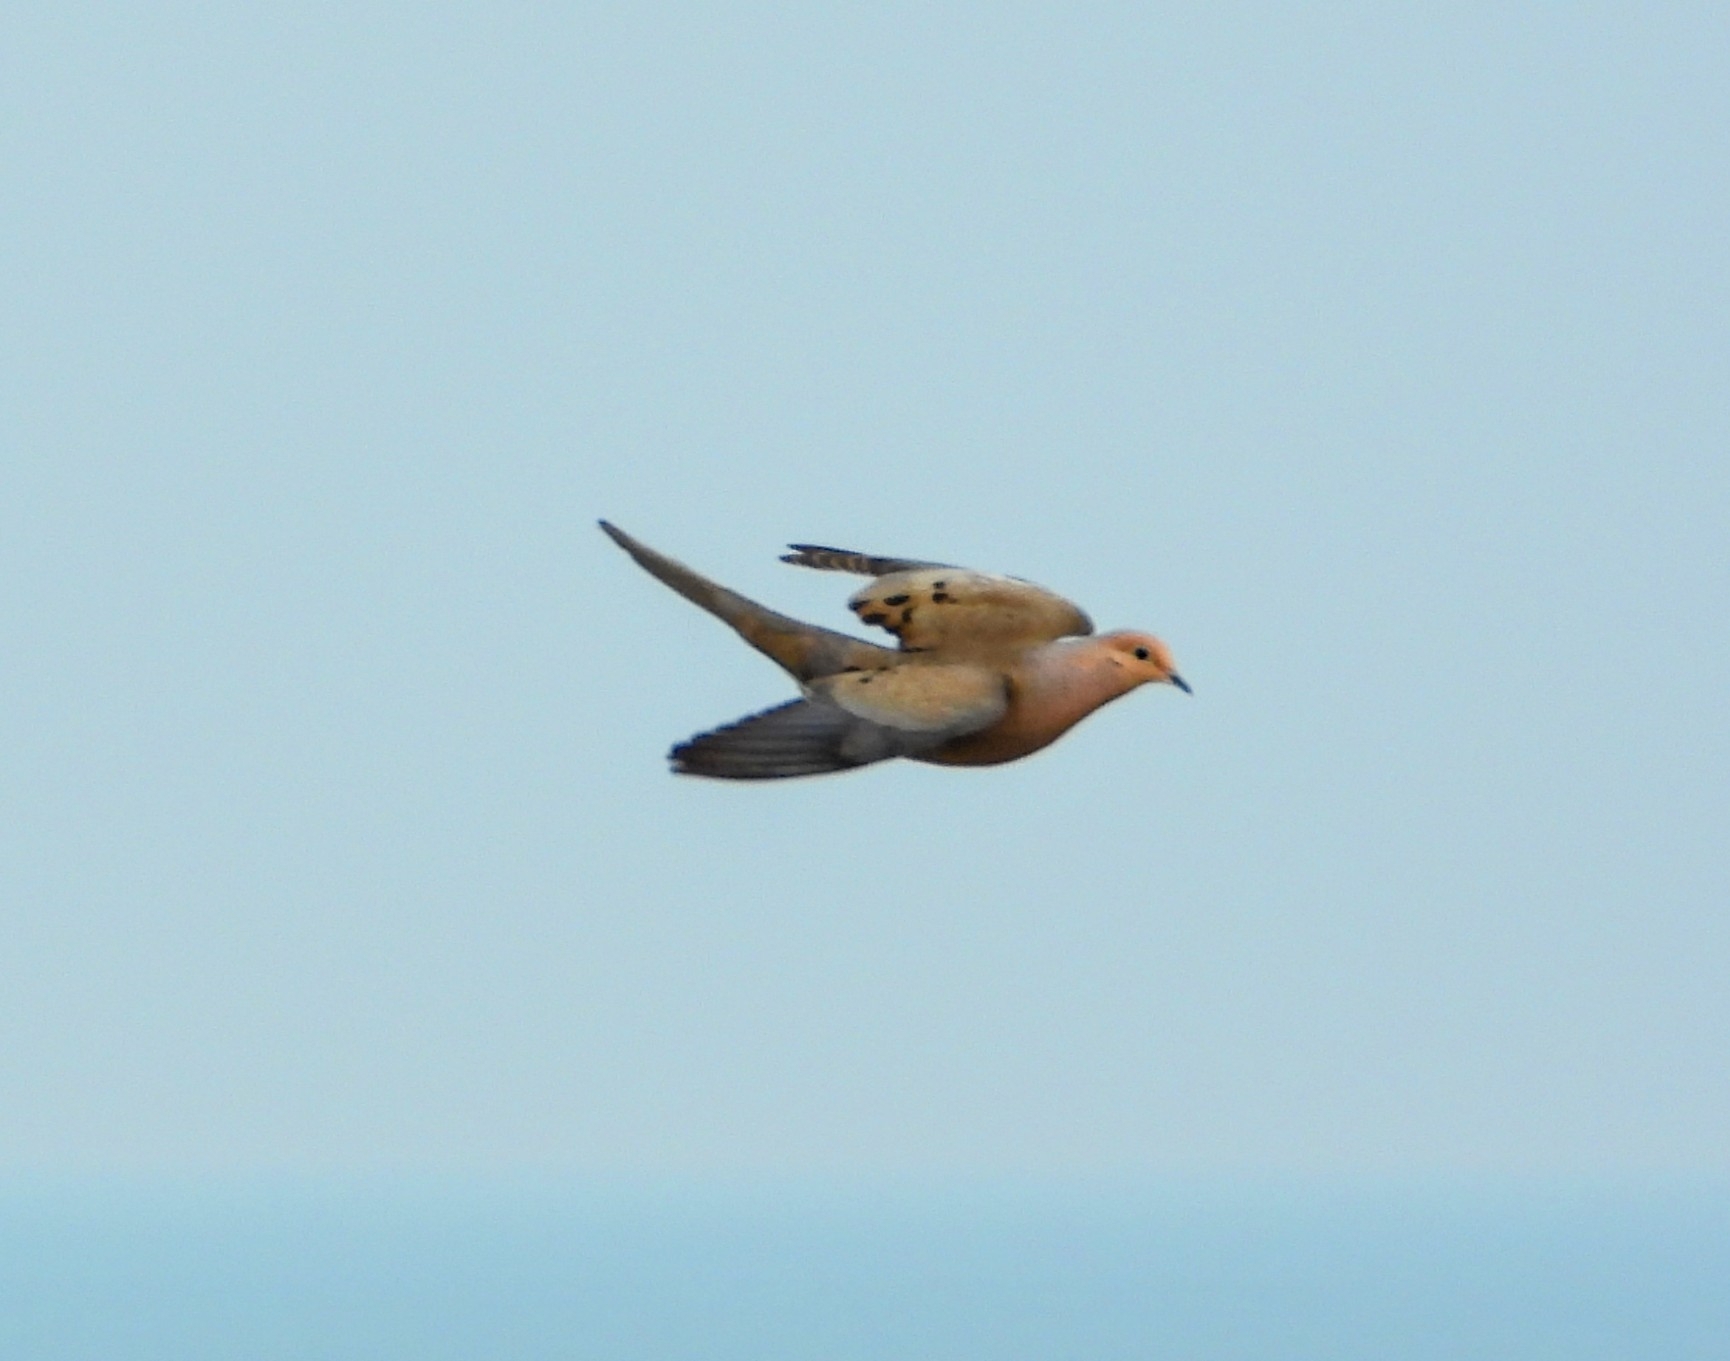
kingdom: Animalia
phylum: Chordata
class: Aves
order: Columbiformes
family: Columbidae
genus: Zenaida
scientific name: Zenaida macroura
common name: Mourning dove
